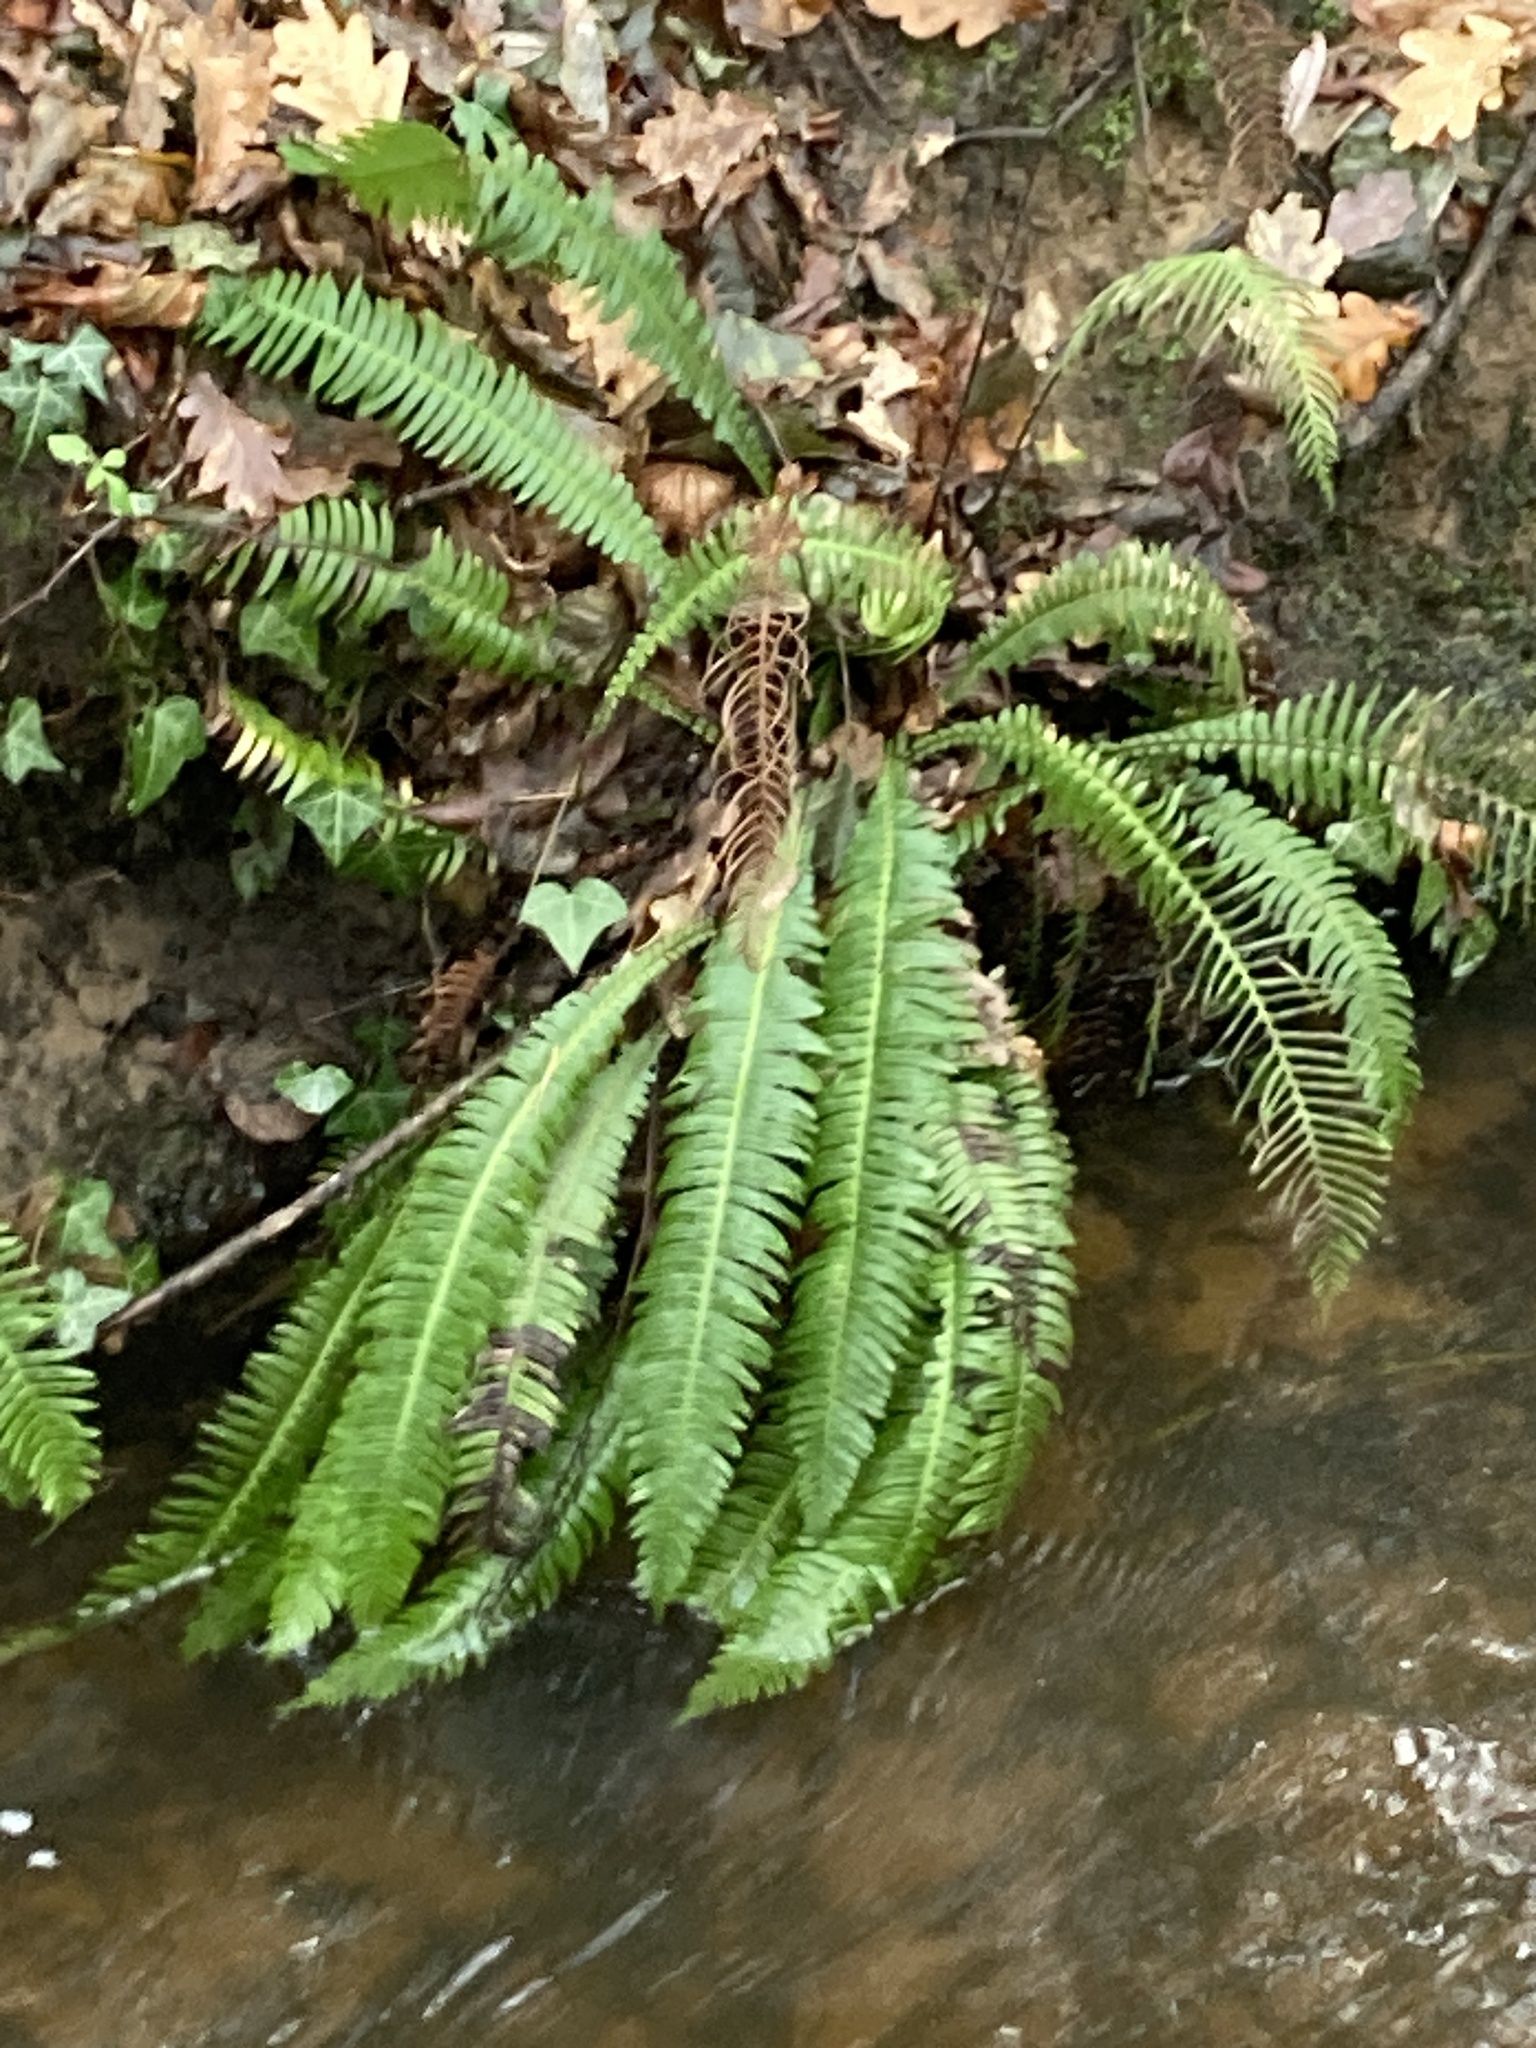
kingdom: Plantae
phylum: Tracheophyta
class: Polypodiopsida
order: Polypodiales
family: Blechnaceae
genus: Struthiopteris
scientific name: Struthiopteris spicant
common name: Deer fern
